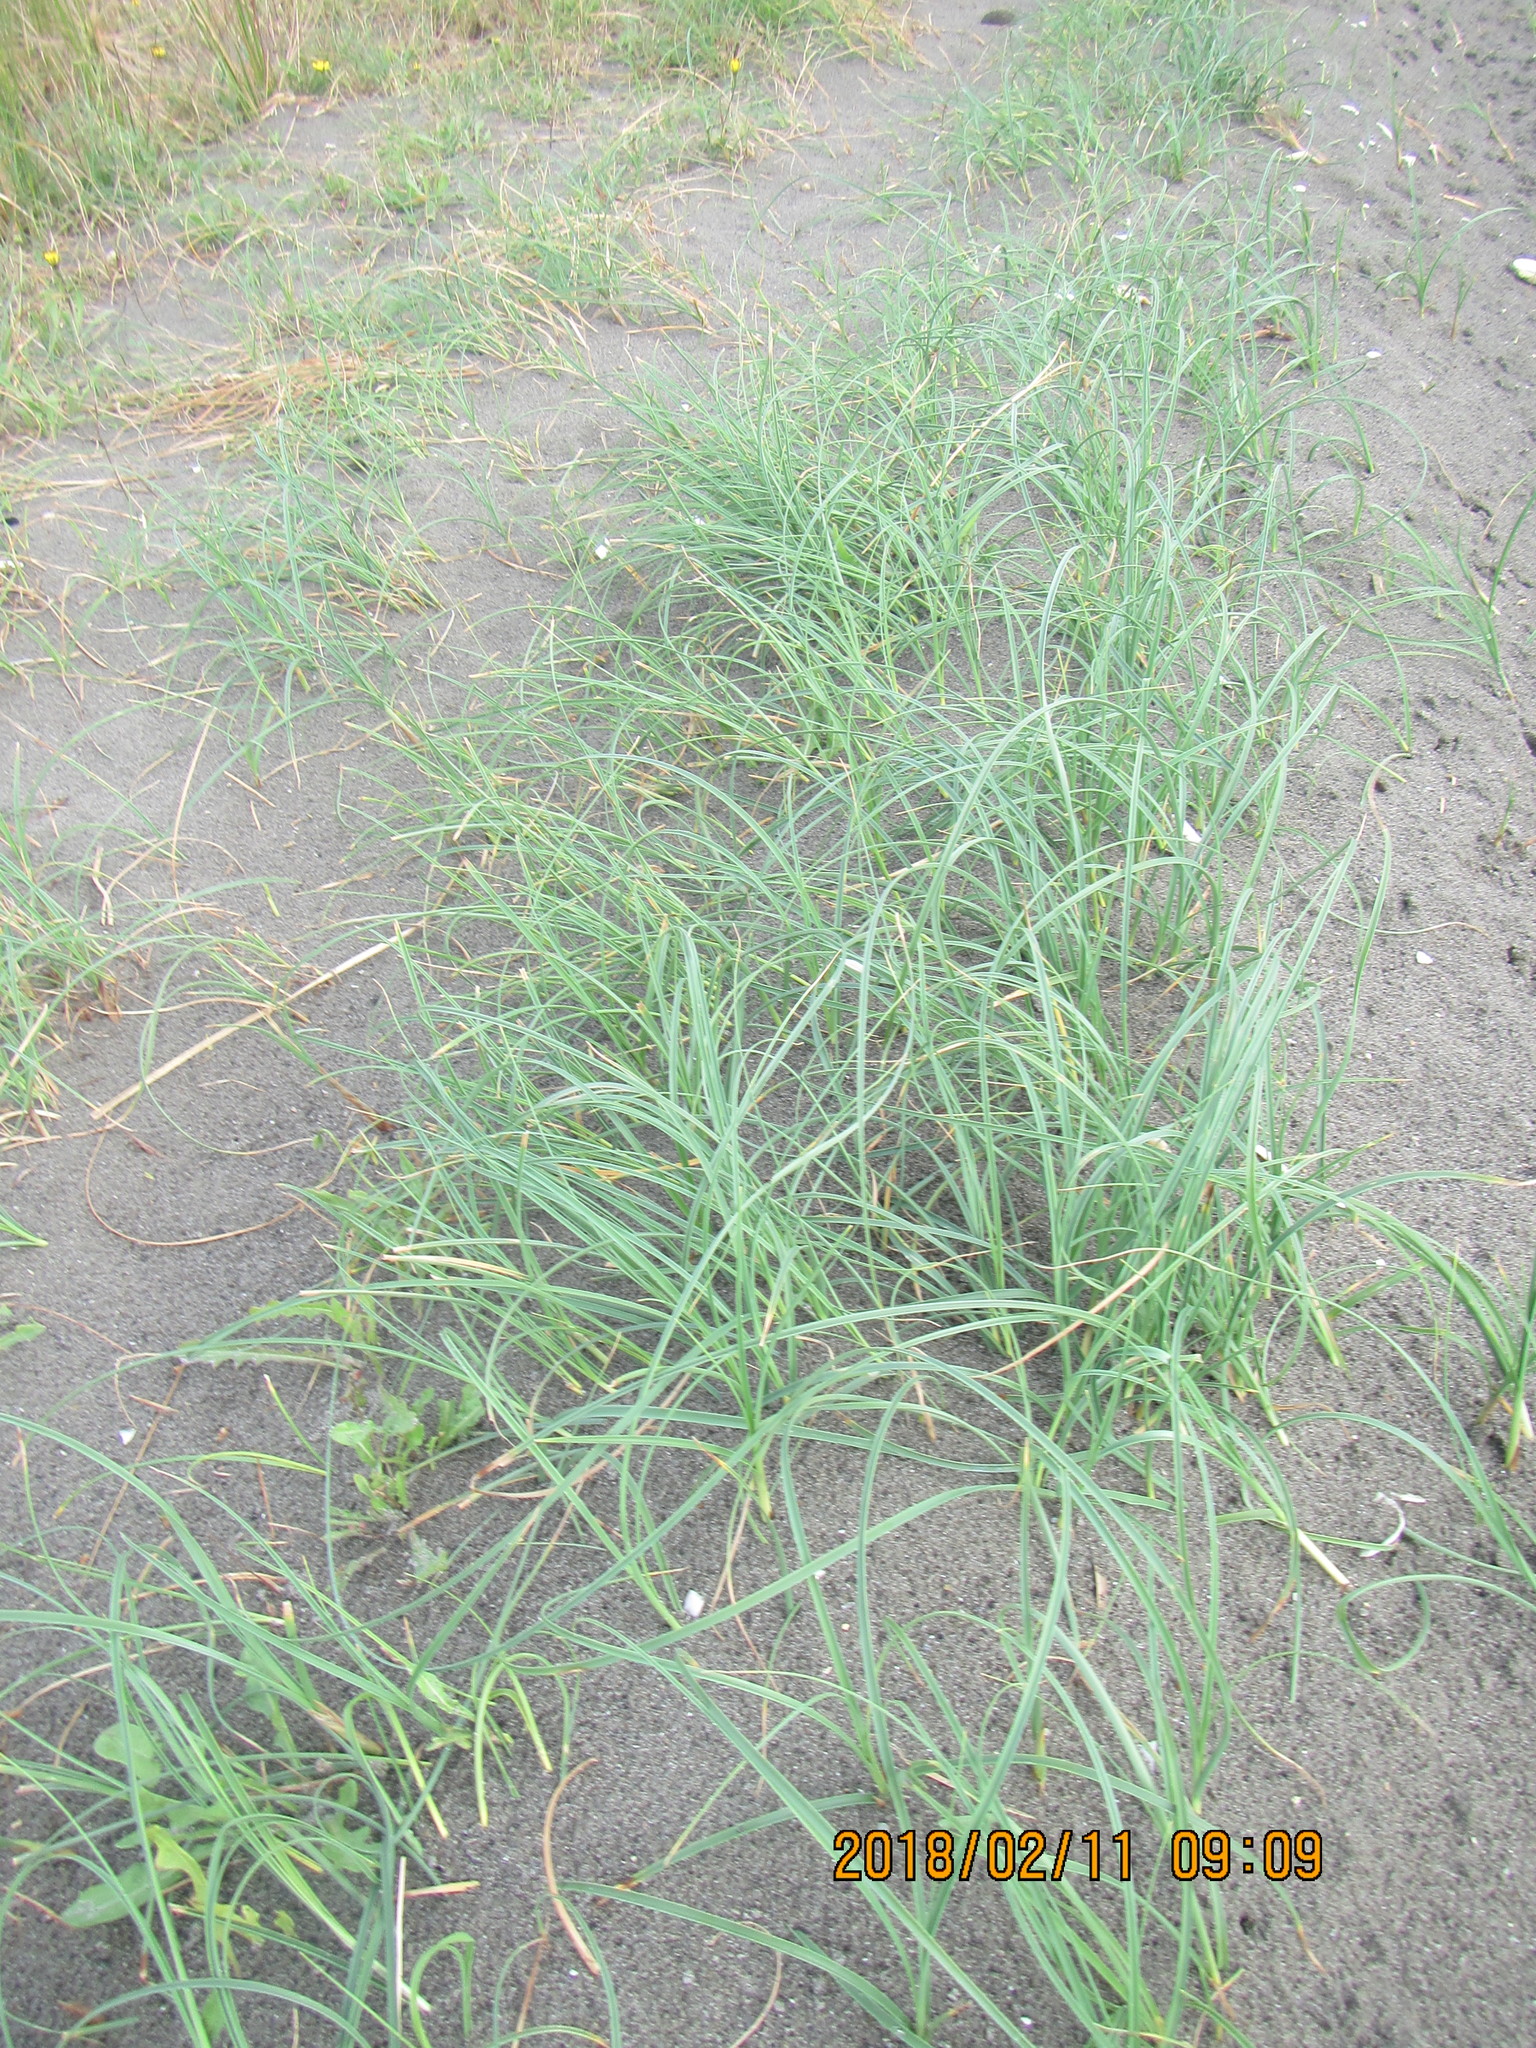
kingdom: Plantae
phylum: Tracheophyta
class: Liliopsida
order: Poales
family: Cyperaceae
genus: Carex
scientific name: Carex pumila
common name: Dwarf sedge
